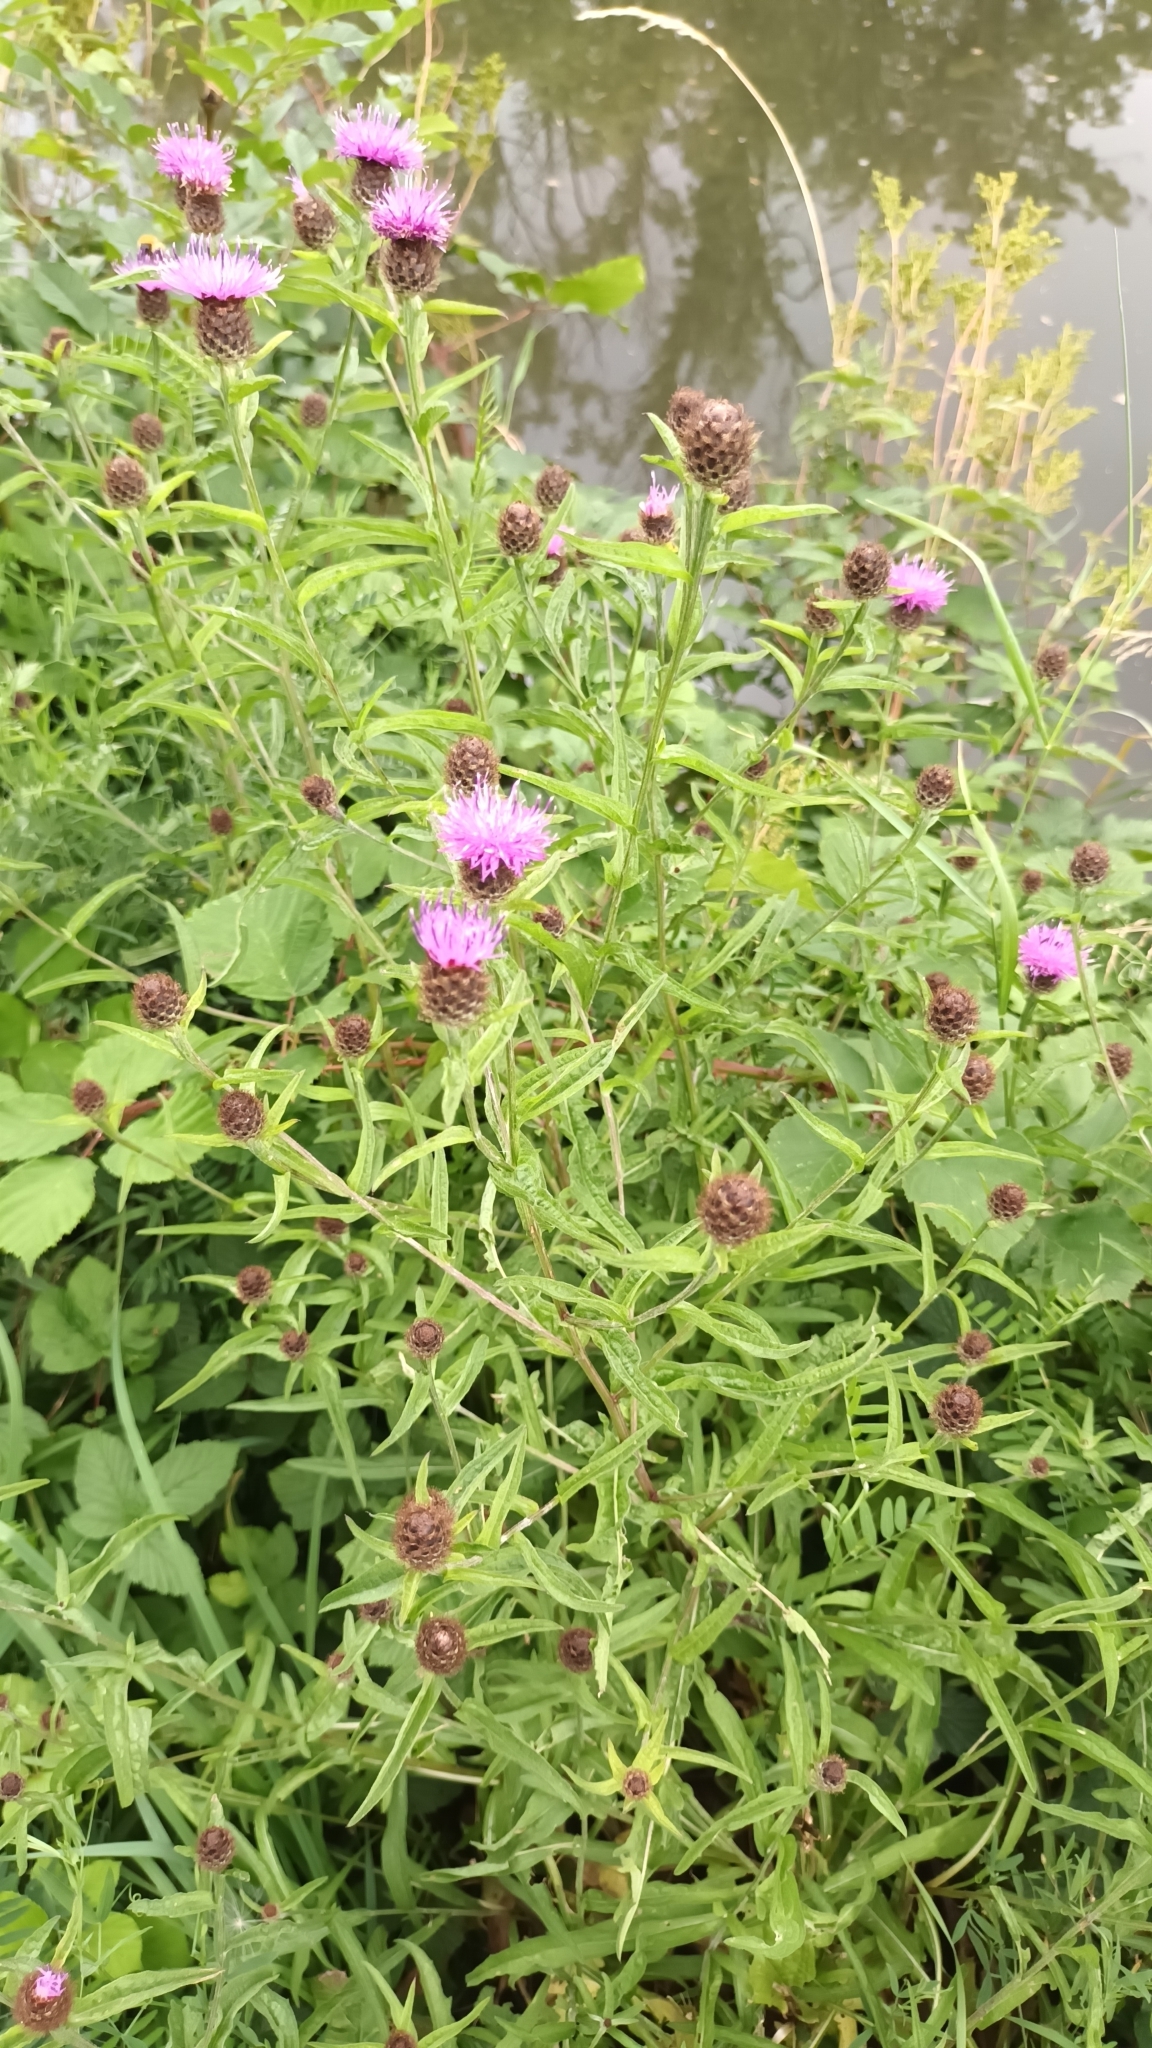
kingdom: Plantae
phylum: Tracheophyta
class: Magnoliopsida
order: Asterales
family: Asteraceae
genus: Centaurea
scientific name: Centaurea nigra
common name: Lesser knapweed
